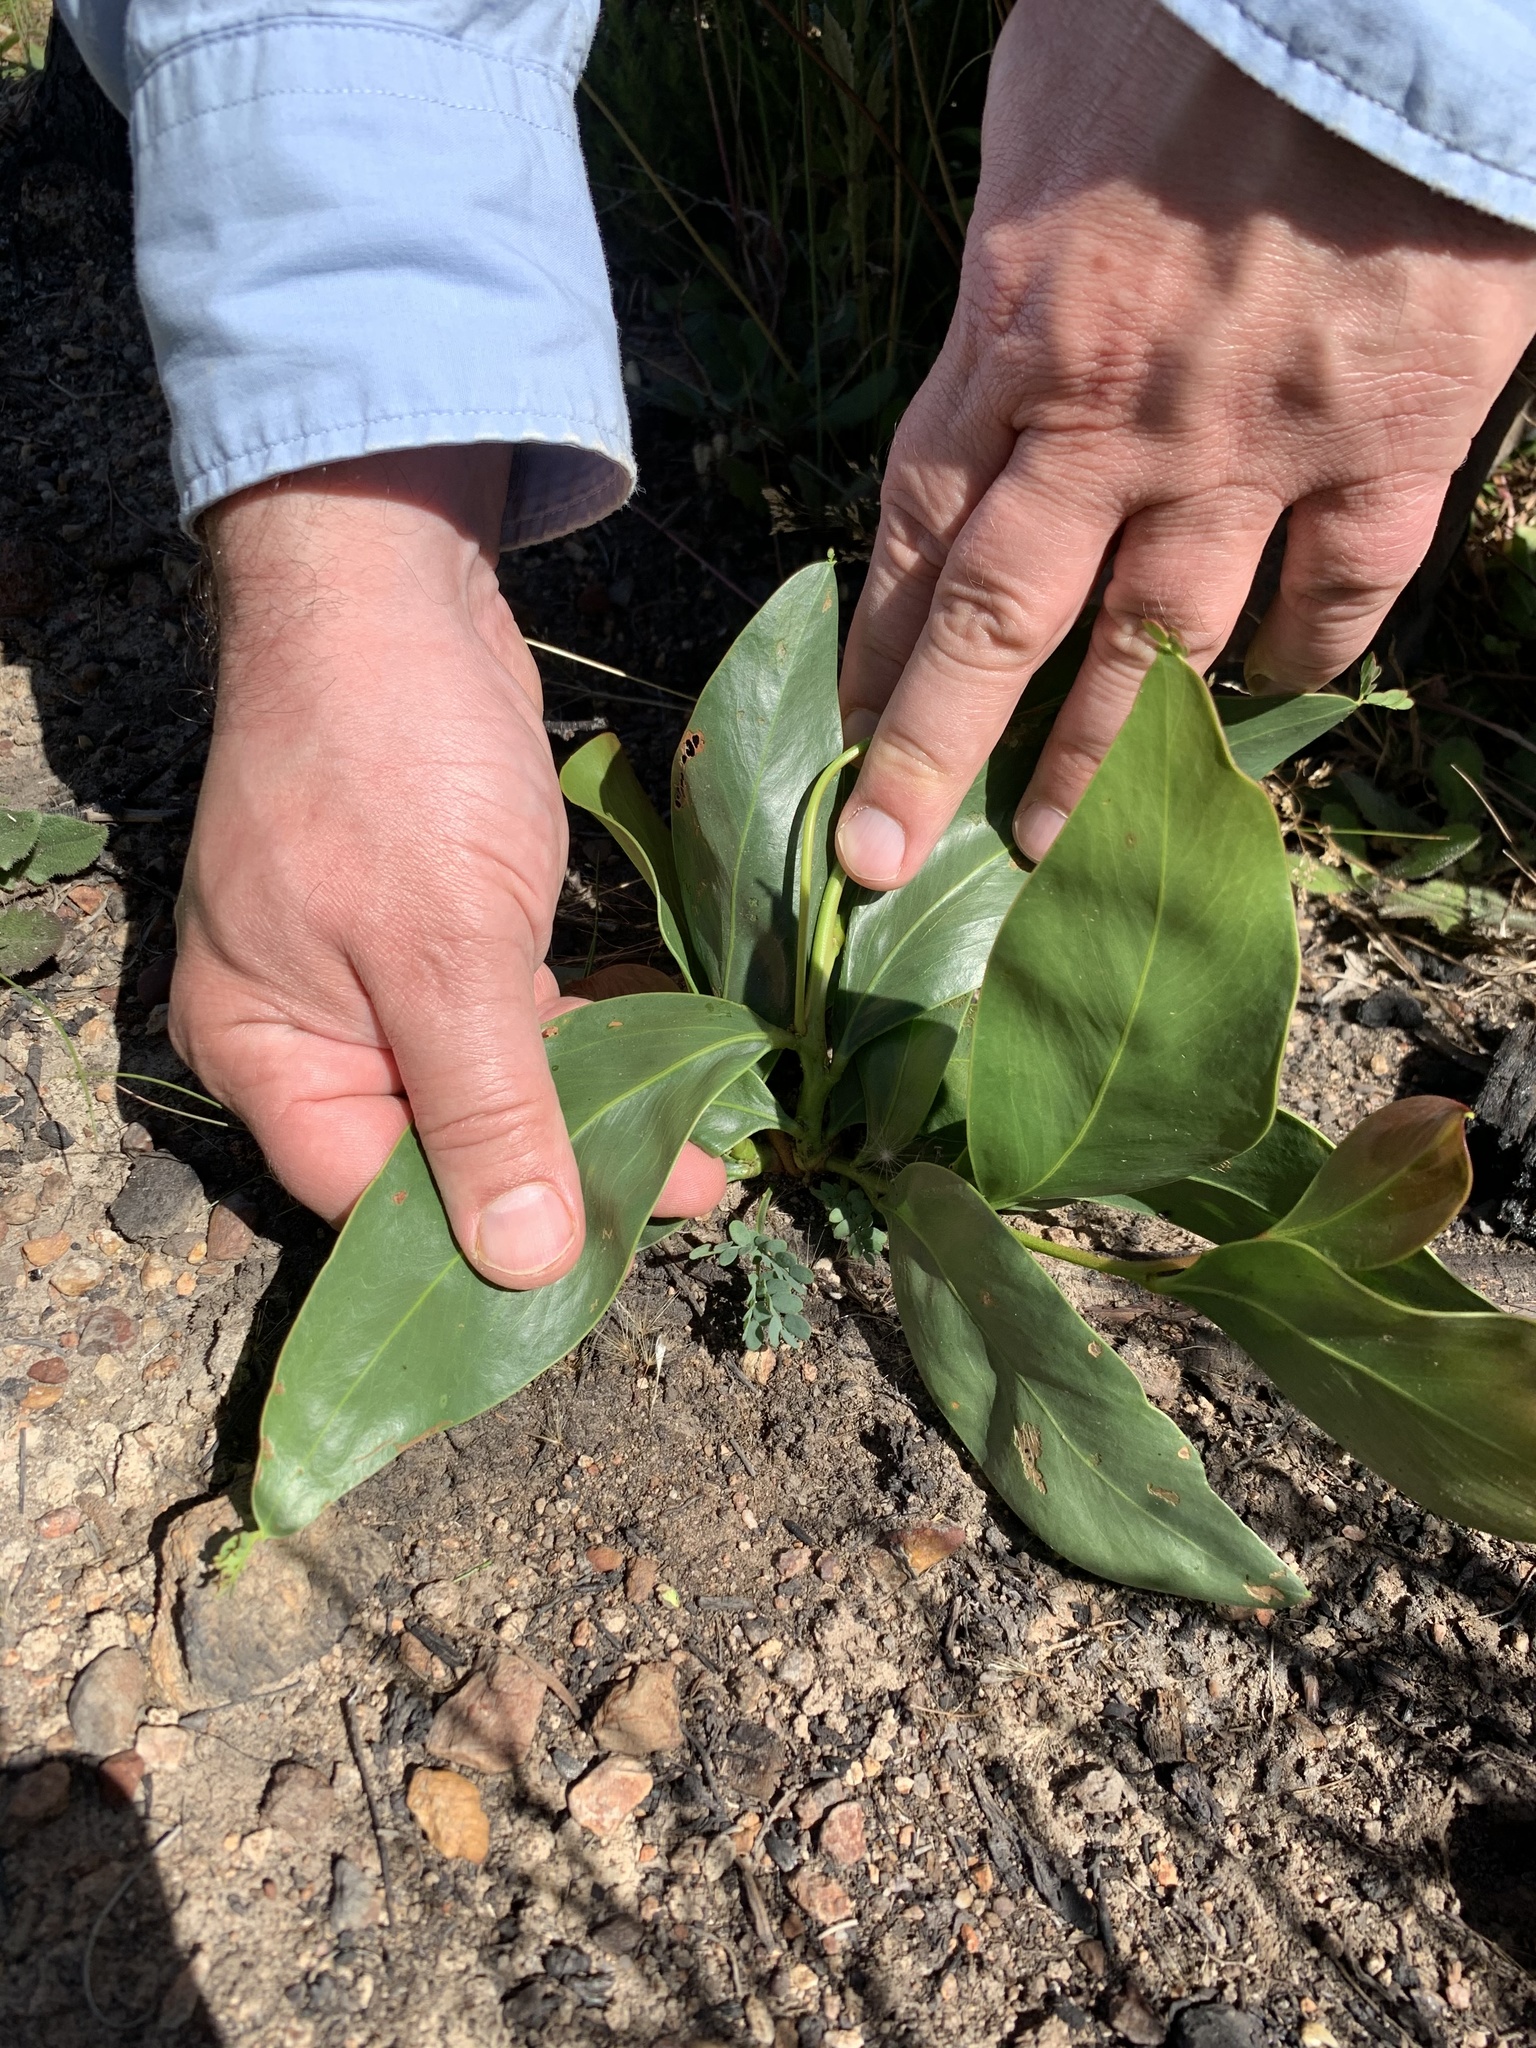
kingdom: Plantae
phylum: Tracheophyta
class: Magnoliopsida
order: Fabales
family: Fabaceae
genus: Acacia
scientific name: Acacia pycnantha
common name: Golden wattle
